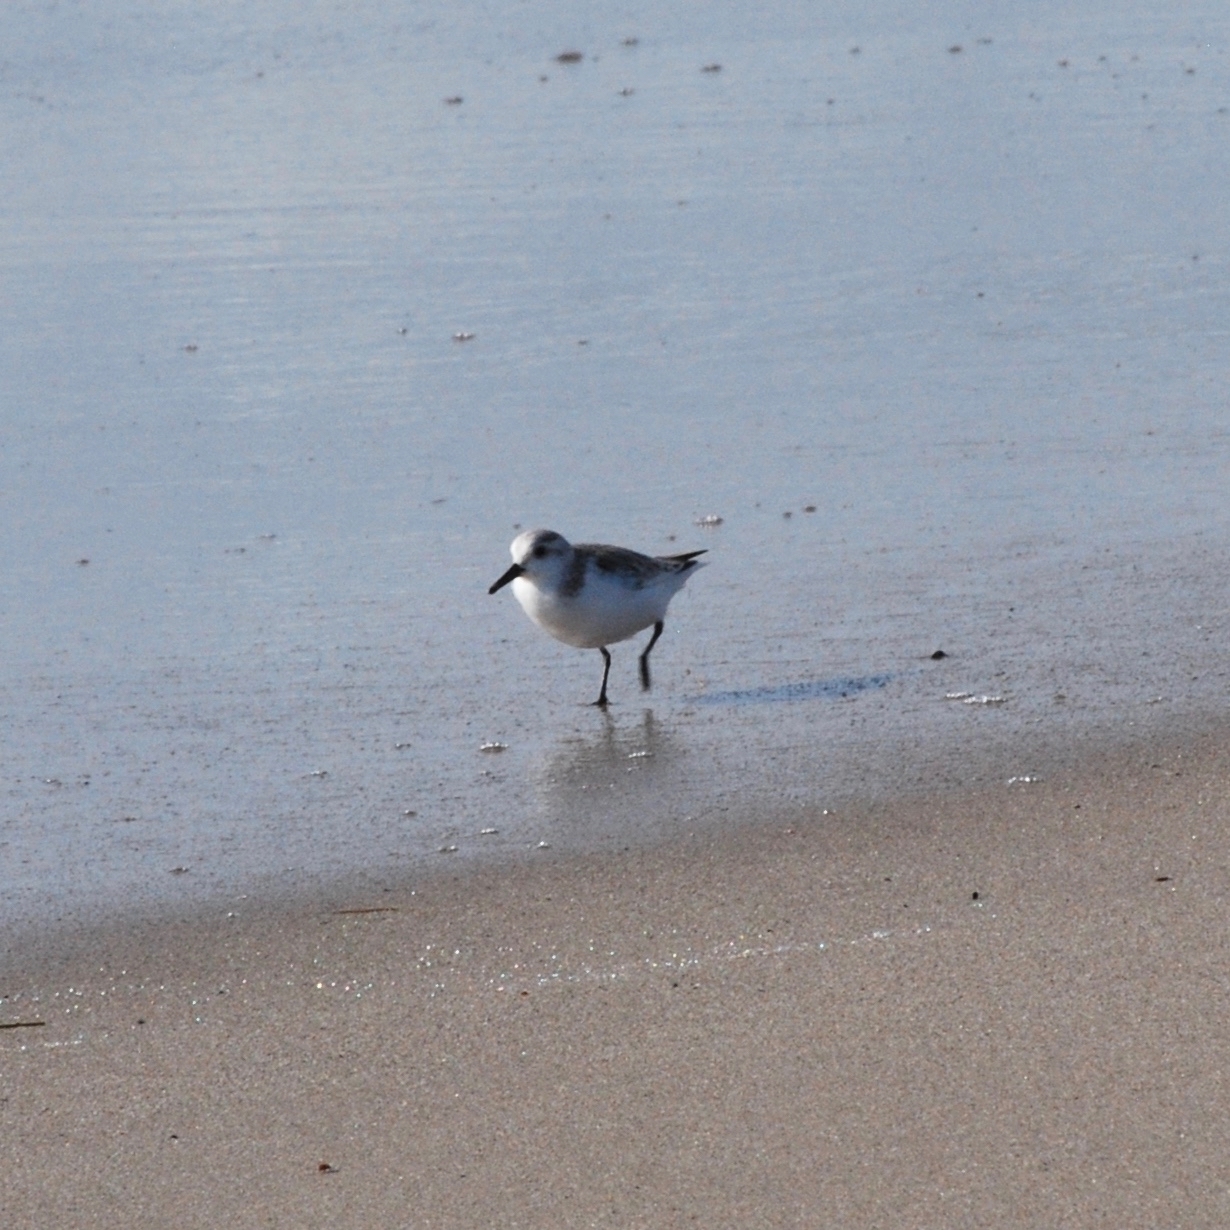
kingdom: Animalia
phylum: Chordata
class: Aves
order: Charadriiformes
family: Scolopacidae
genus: Calidris
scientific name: Calidris alba
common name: Sanderling
